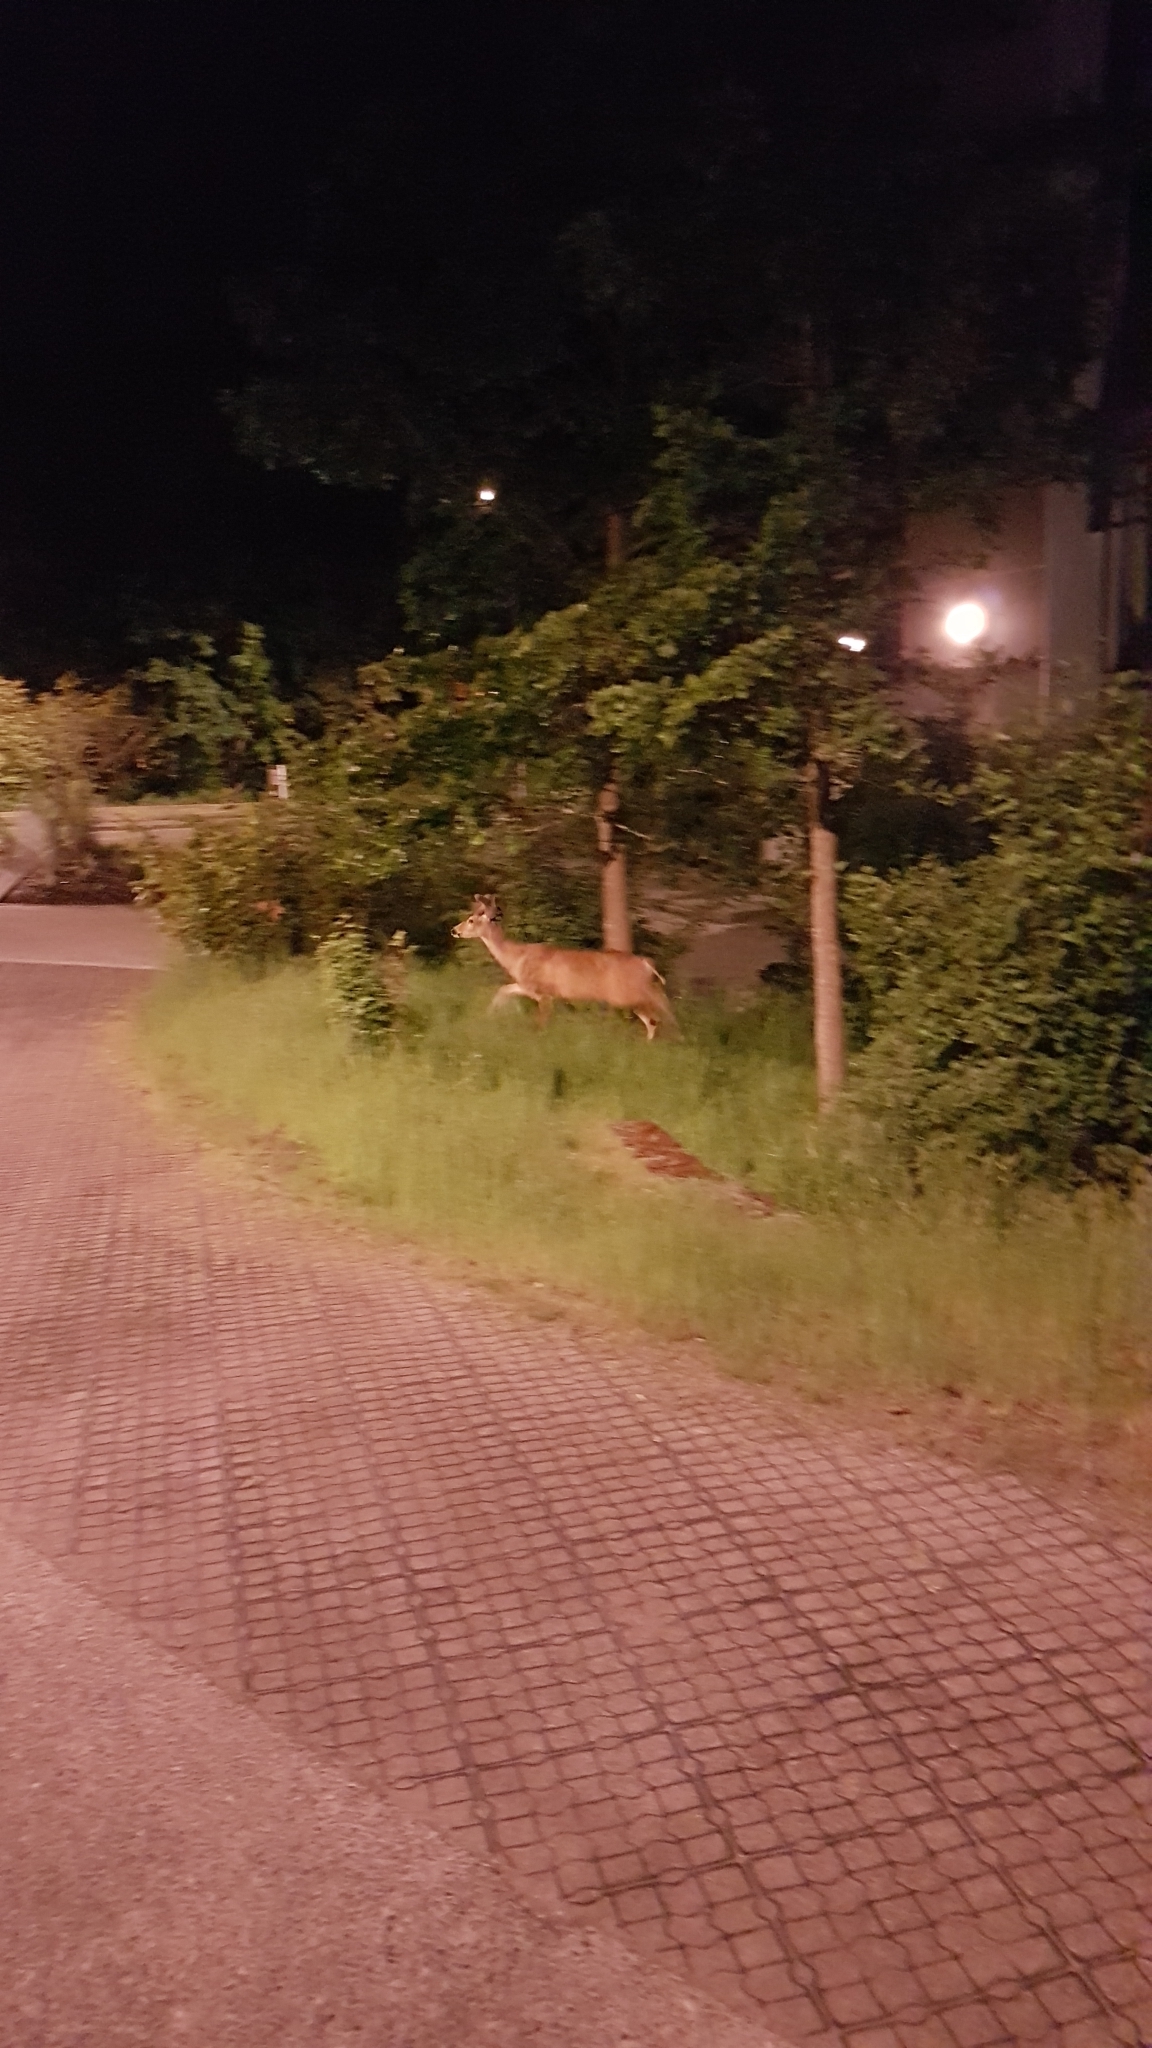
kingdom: Animalia
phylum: Chordata
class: Mammalia
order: Artiodactyla
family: Cervidae
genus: Odocoileus
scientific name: Odocoileus hemionus
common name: Mule deer
